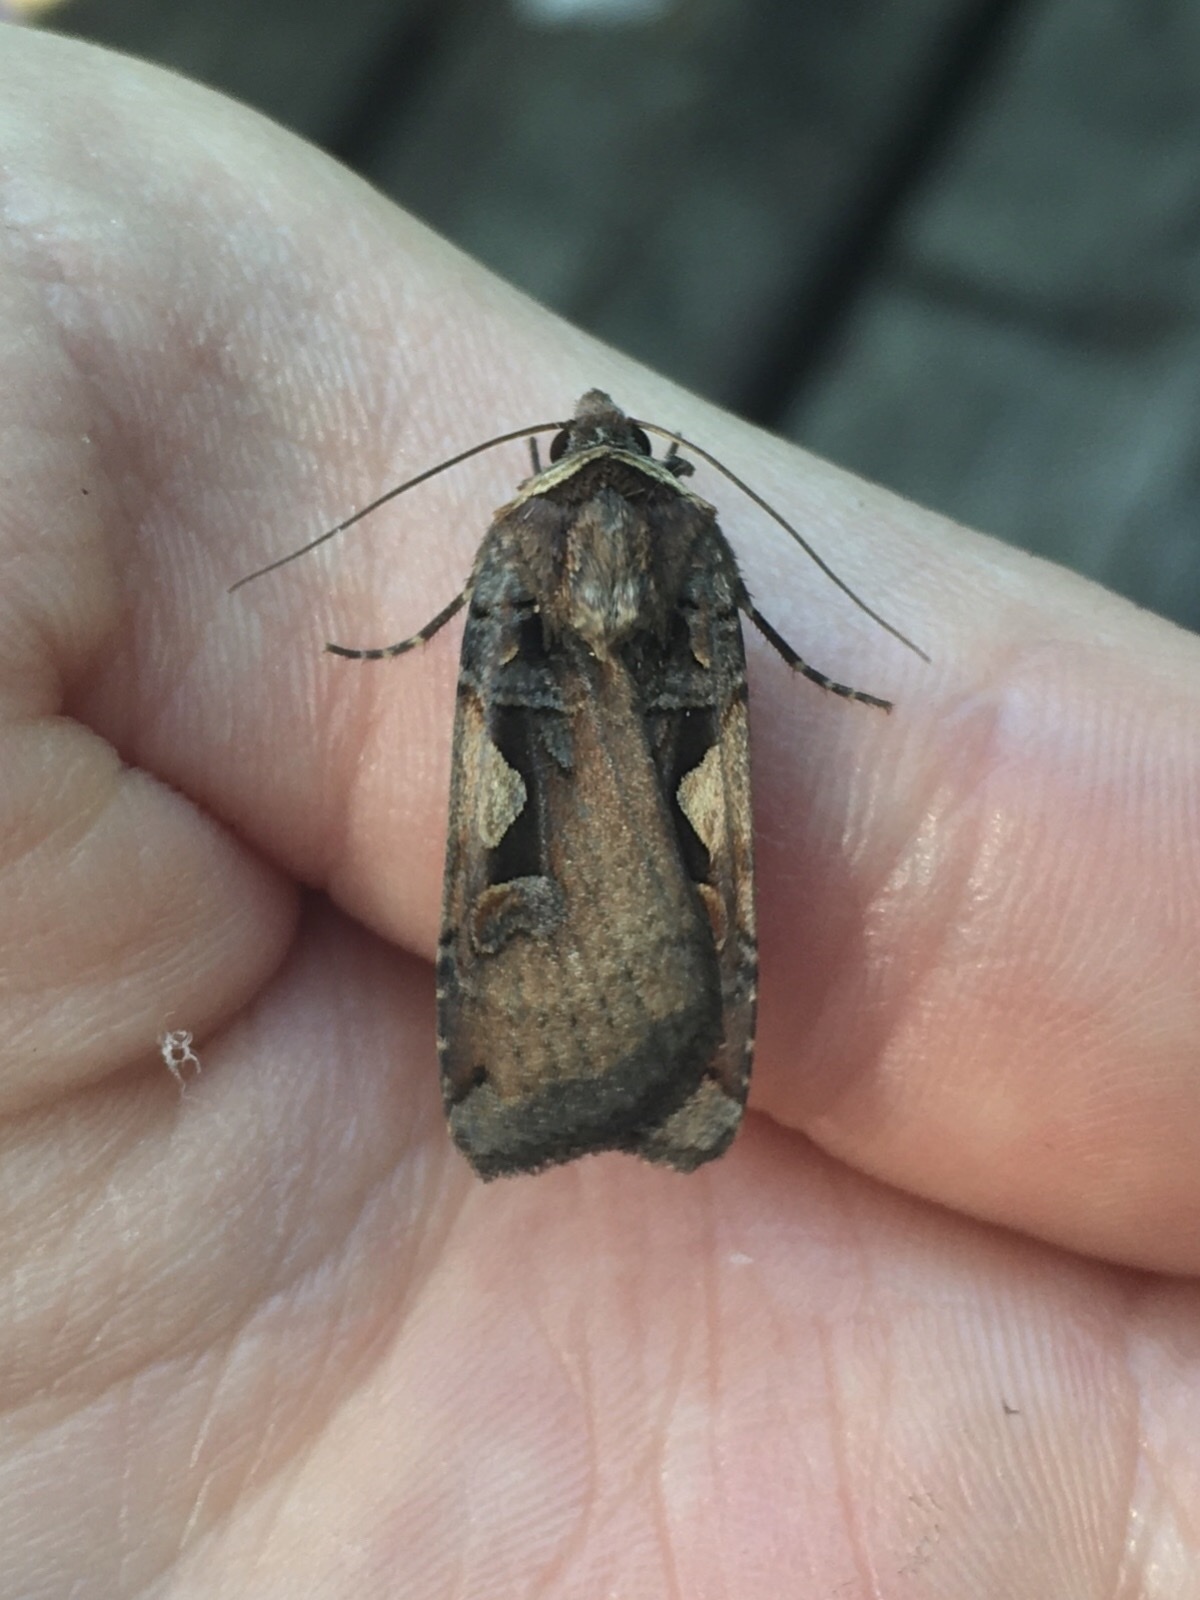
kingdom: Animalia
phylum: Arthropoda
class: Insecta
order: Lepidoptera
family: Noctuidae
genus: Xestia
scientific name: Xestia
